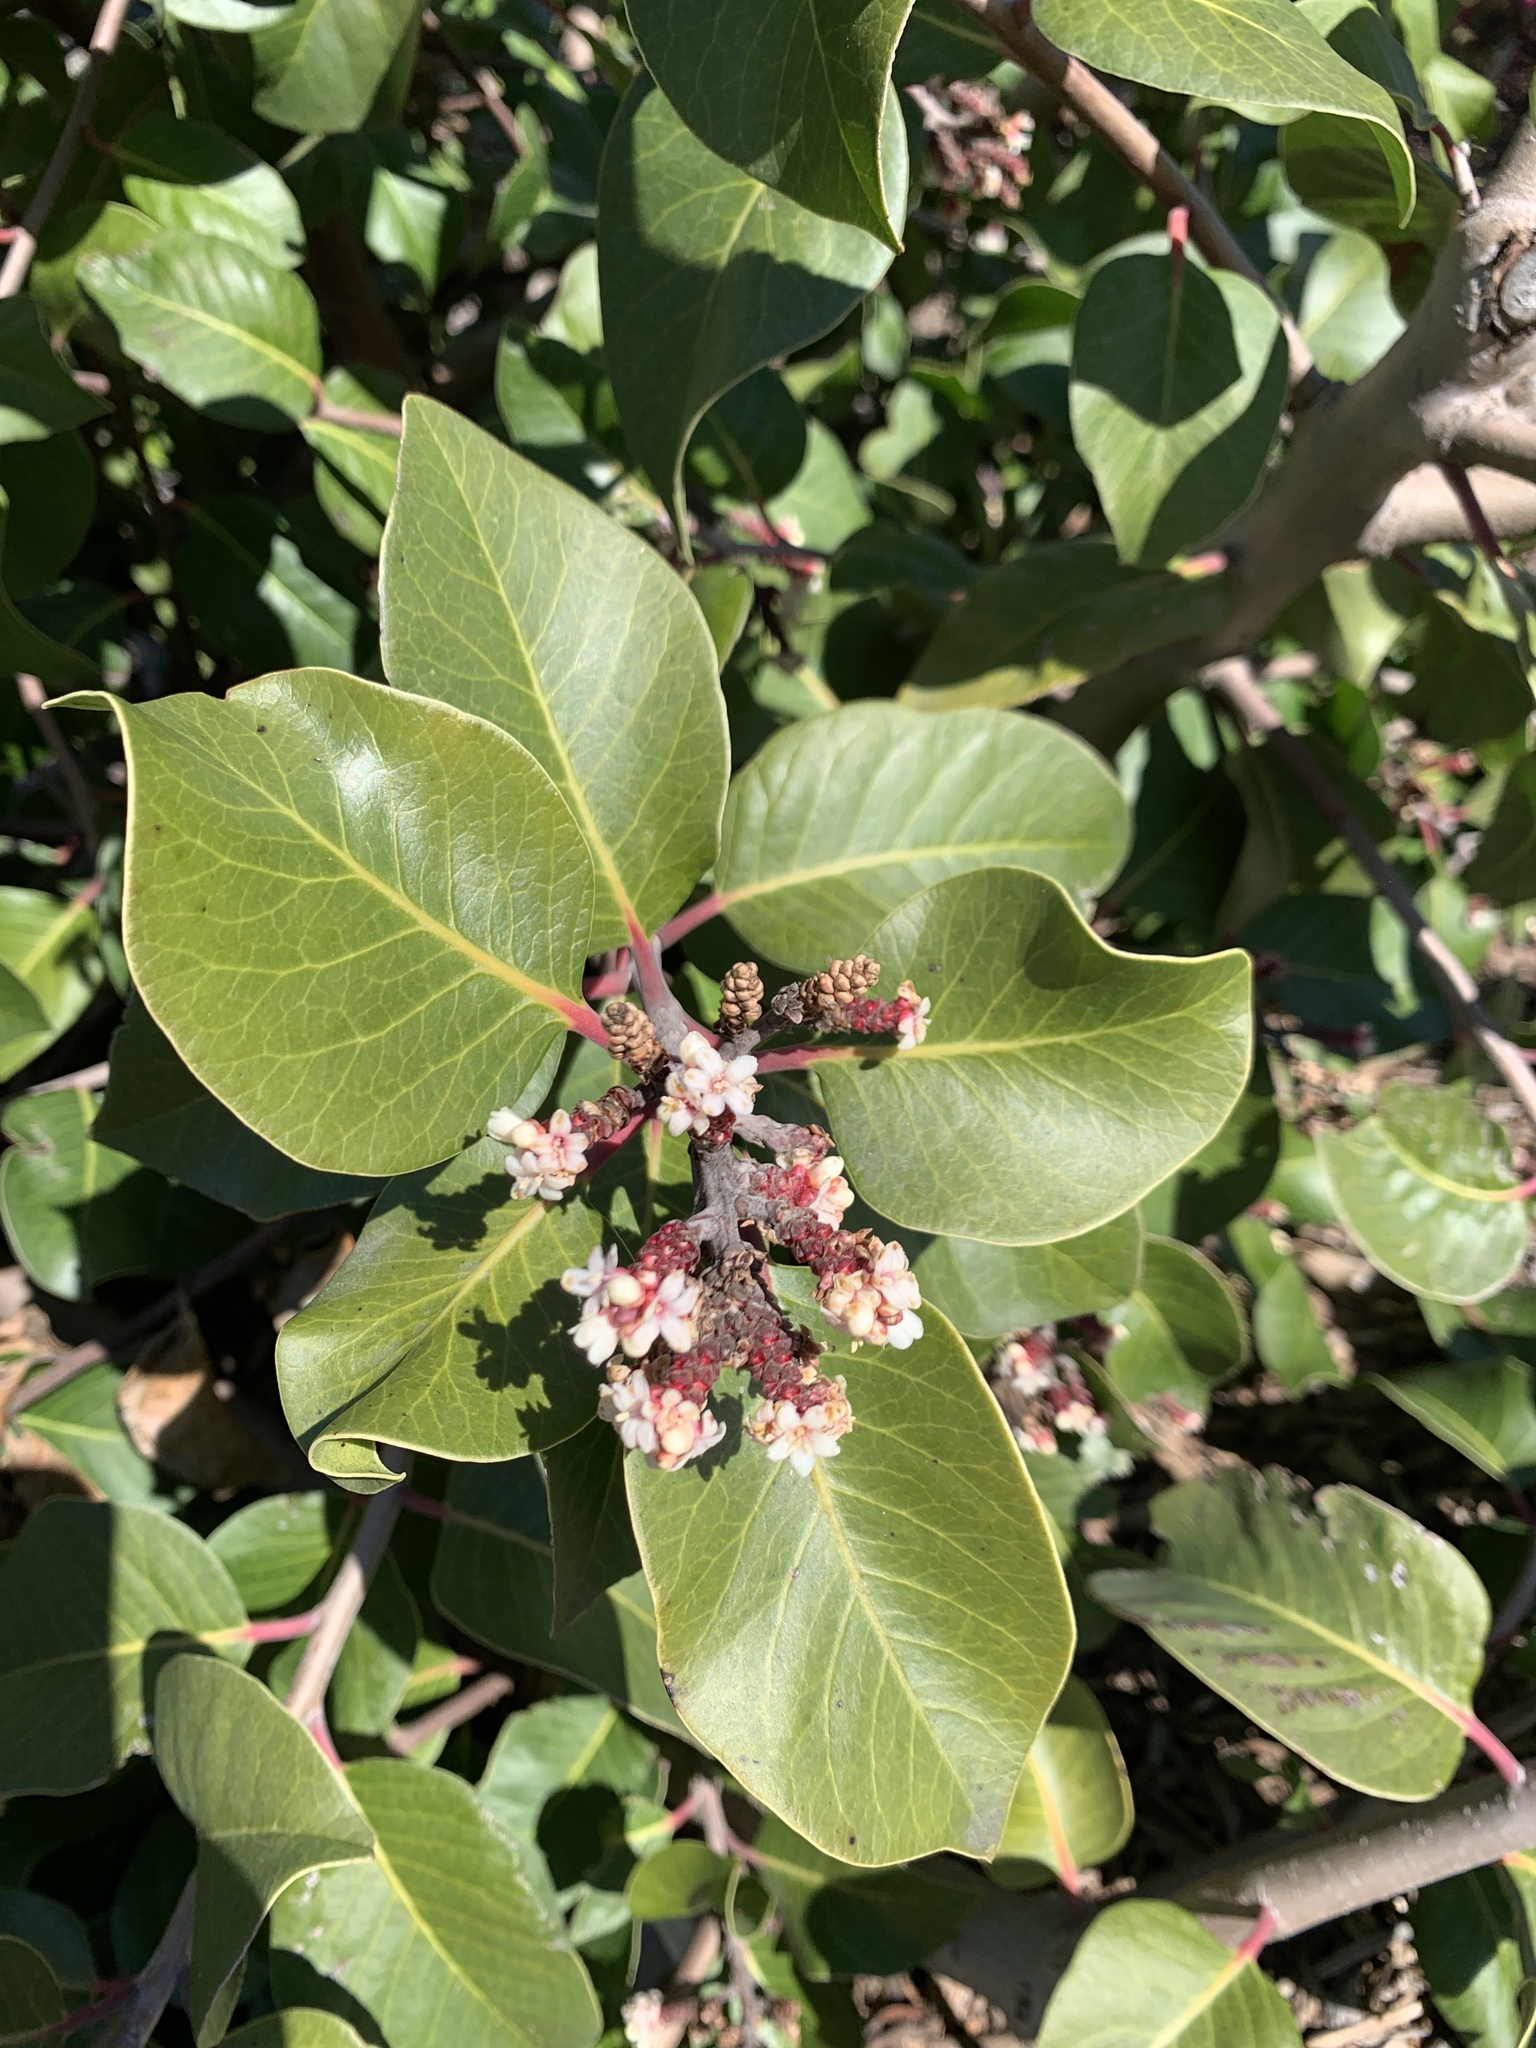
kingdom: Plantae
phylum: Tracheophyta
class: Magnoliopsida
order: Sapindales
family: Anacardiaceae
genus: Rhus
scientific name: Rhus ovata
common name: Sugar sumac
